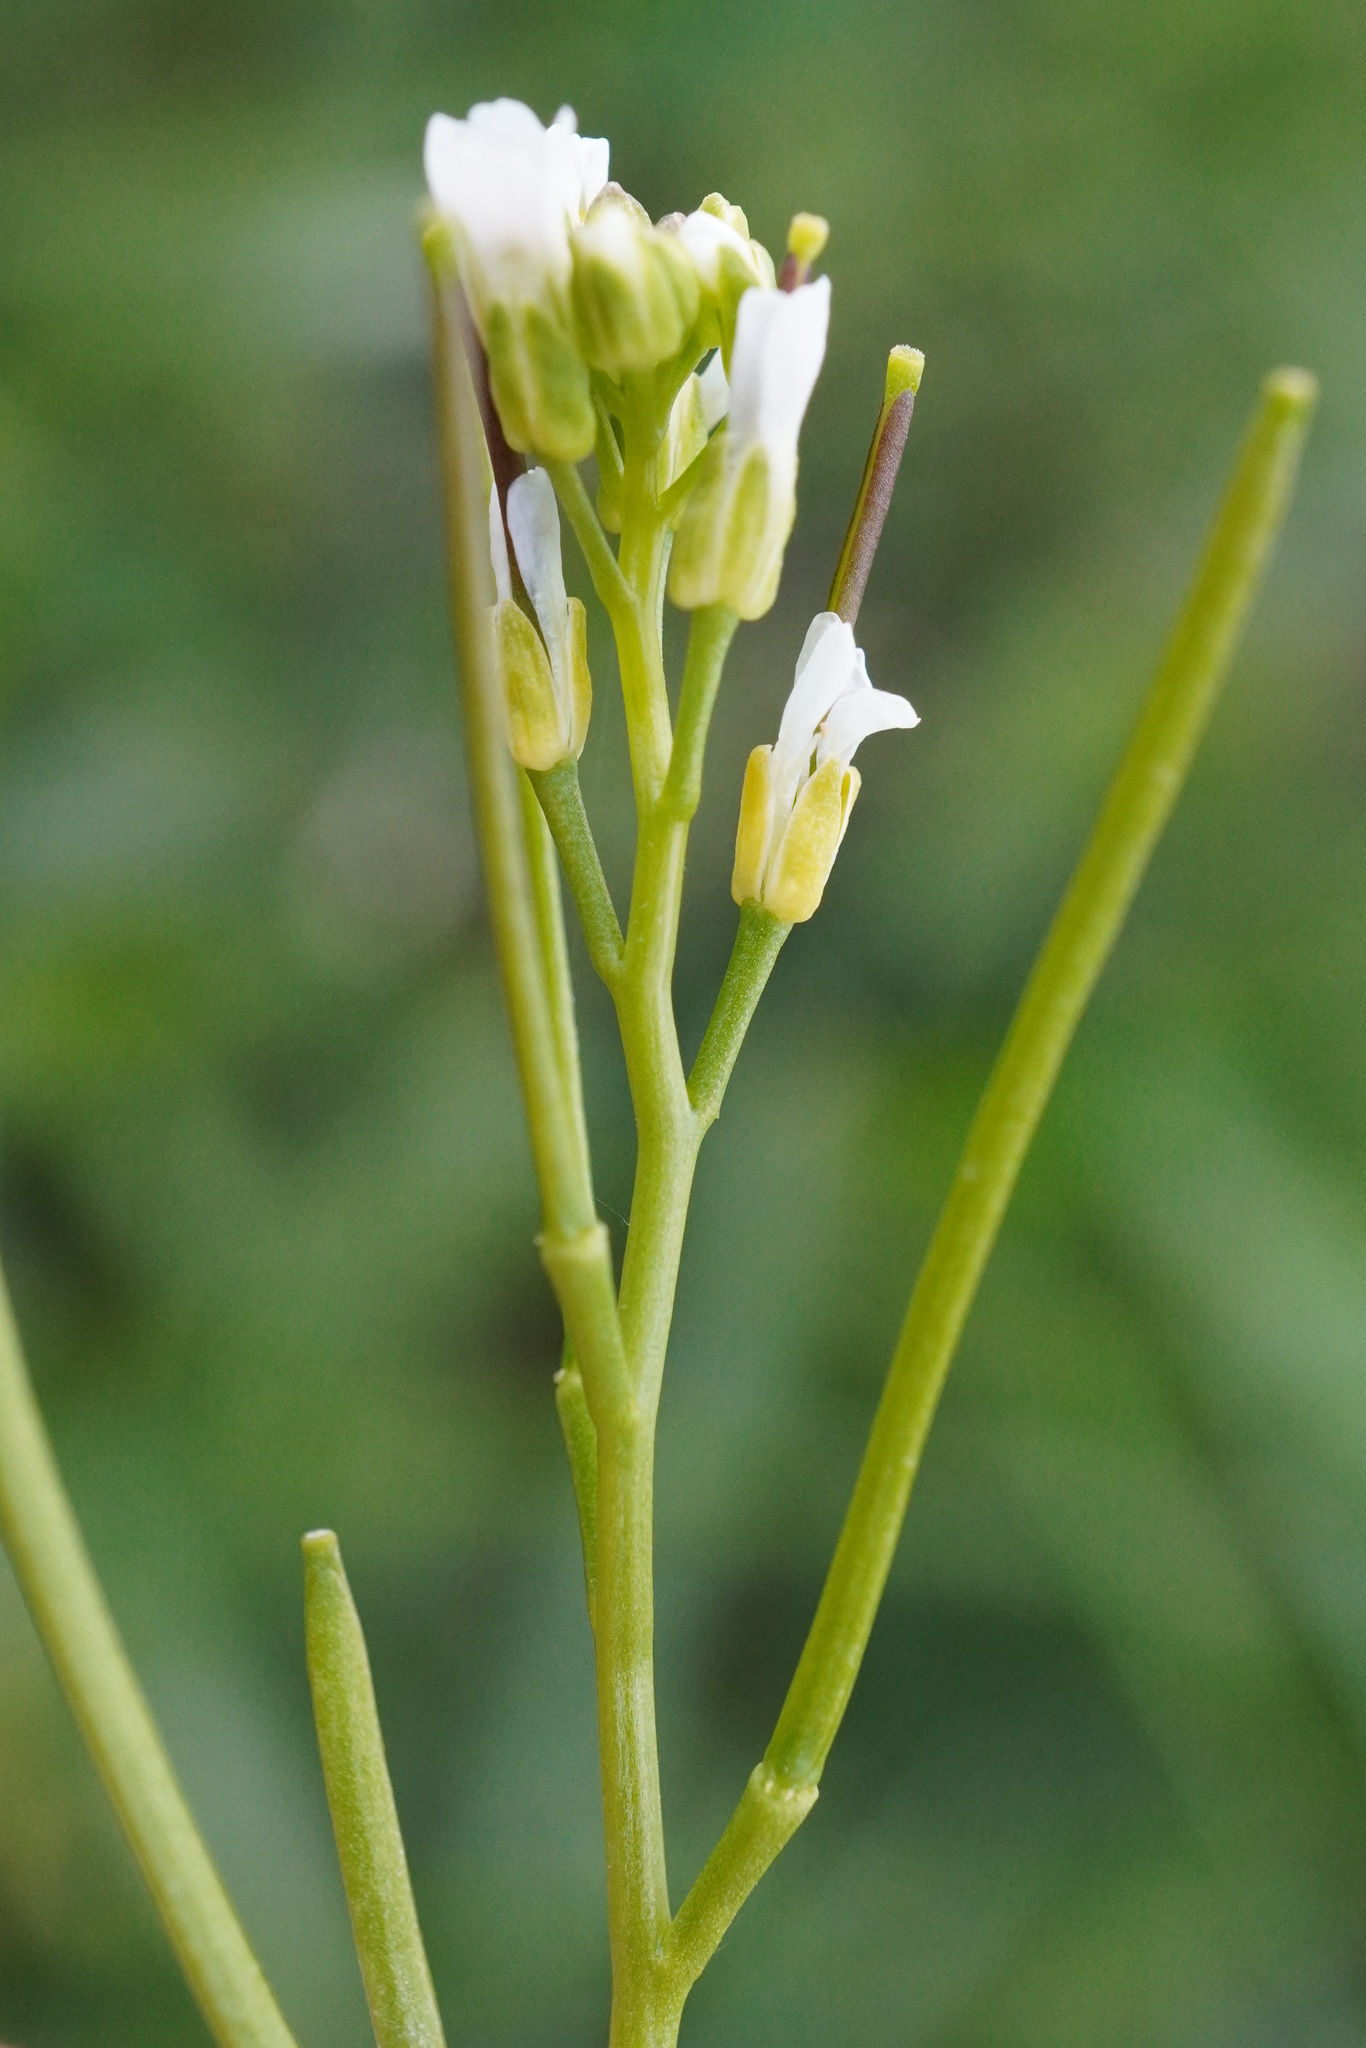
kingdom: Plantae
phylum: Tracheophyta
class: Magnoliopsida
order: Brassicales
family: Brassicaceae
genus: Arabis
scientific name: Arabis auriculata
